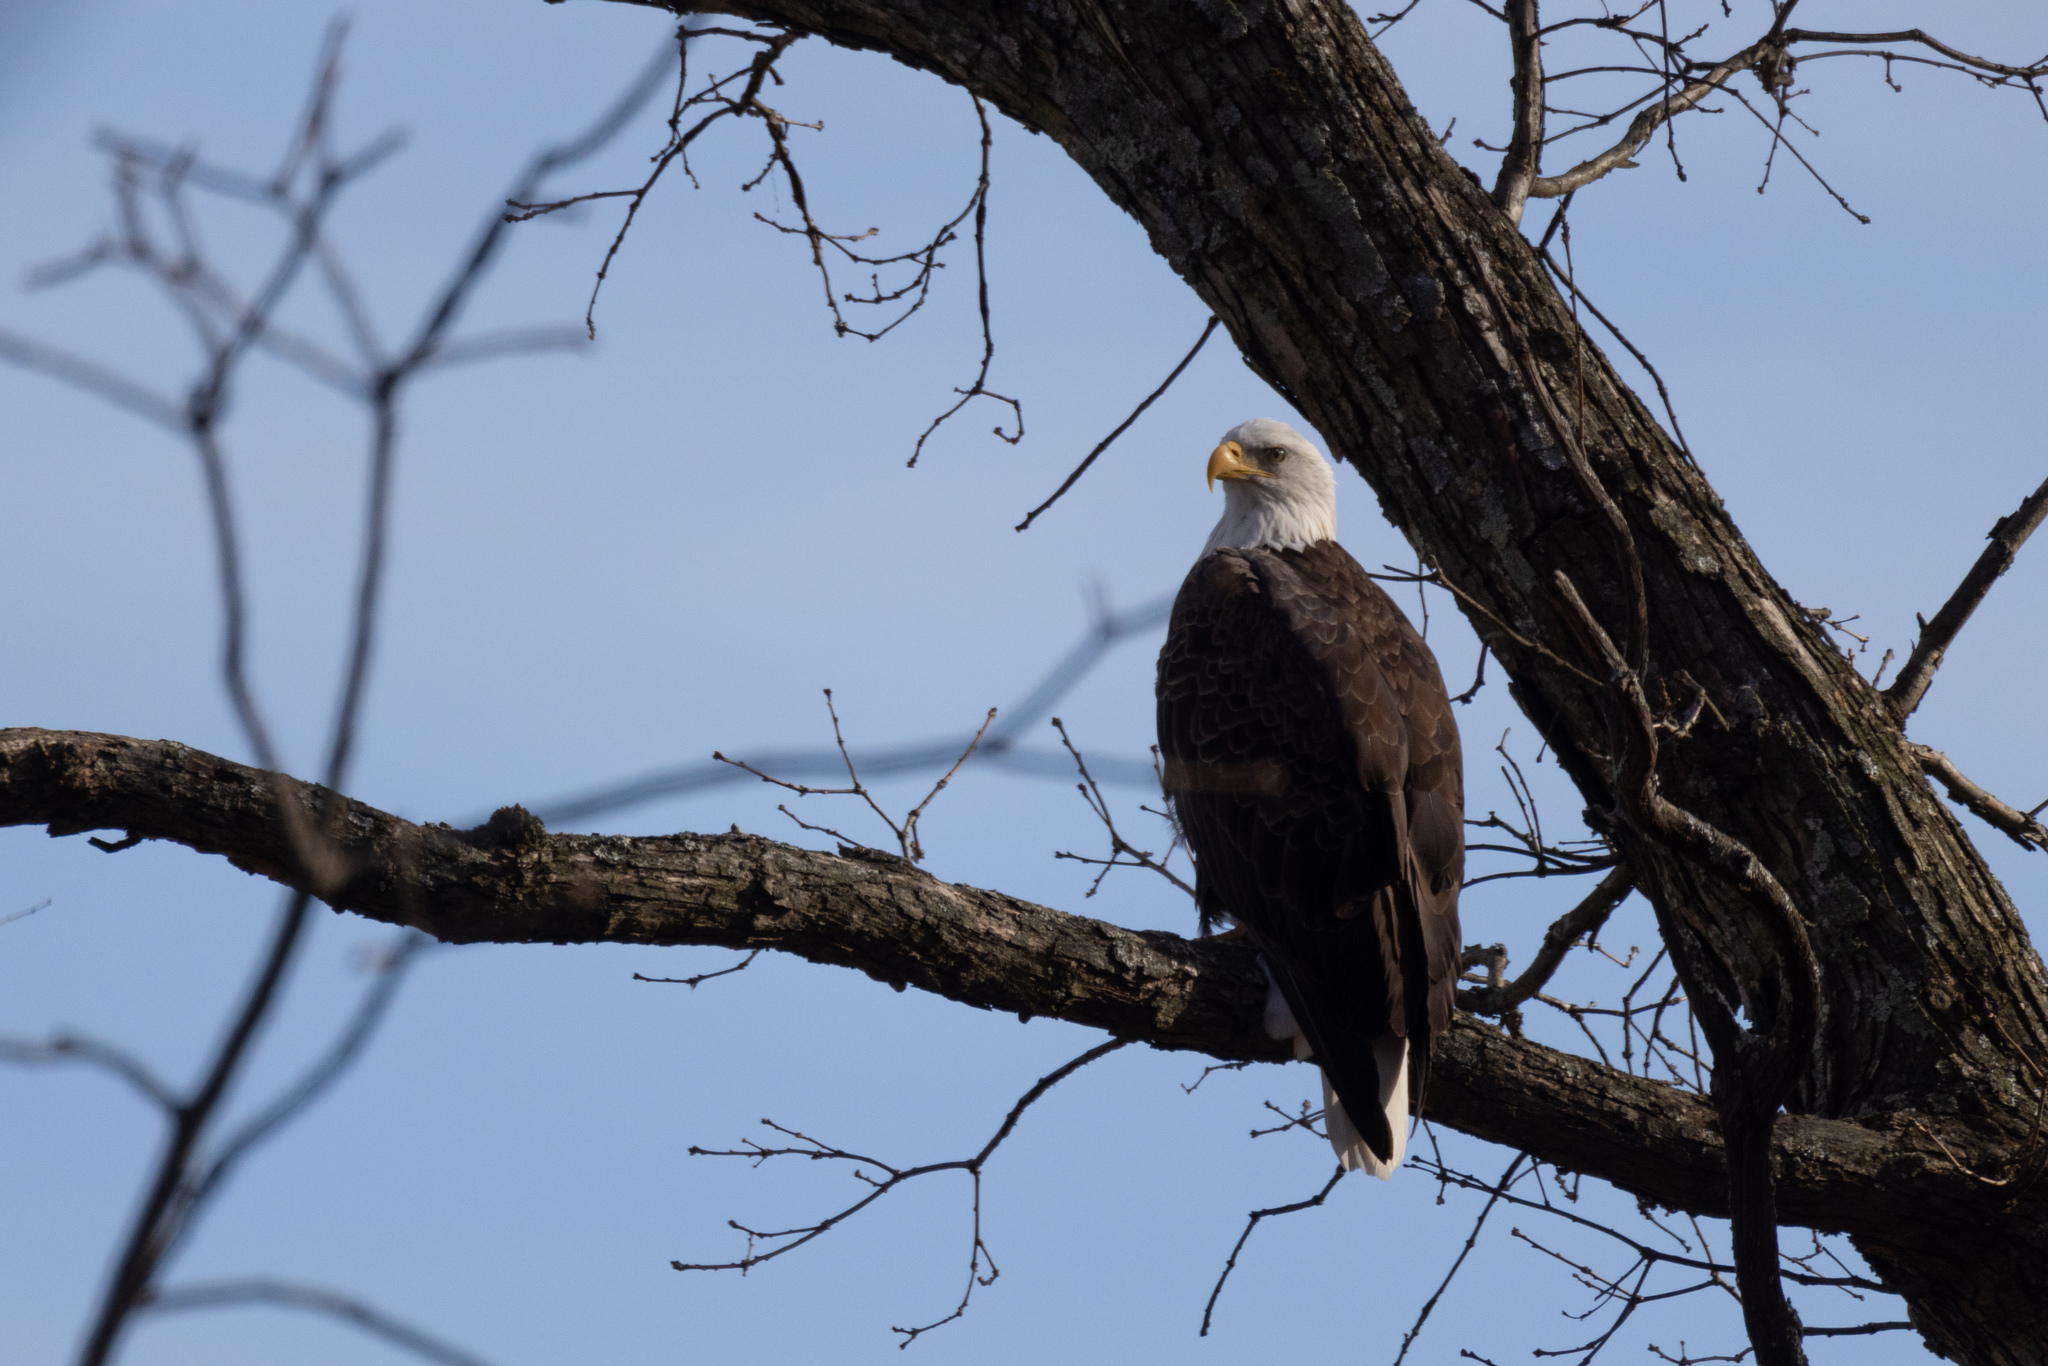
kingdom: Animalia
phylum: Chordata
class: Aves
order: Accipitriformes
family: Accipitridae
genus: Haliaeetus
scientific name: Haliaeetus leucocephalus
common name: Bald eagle
